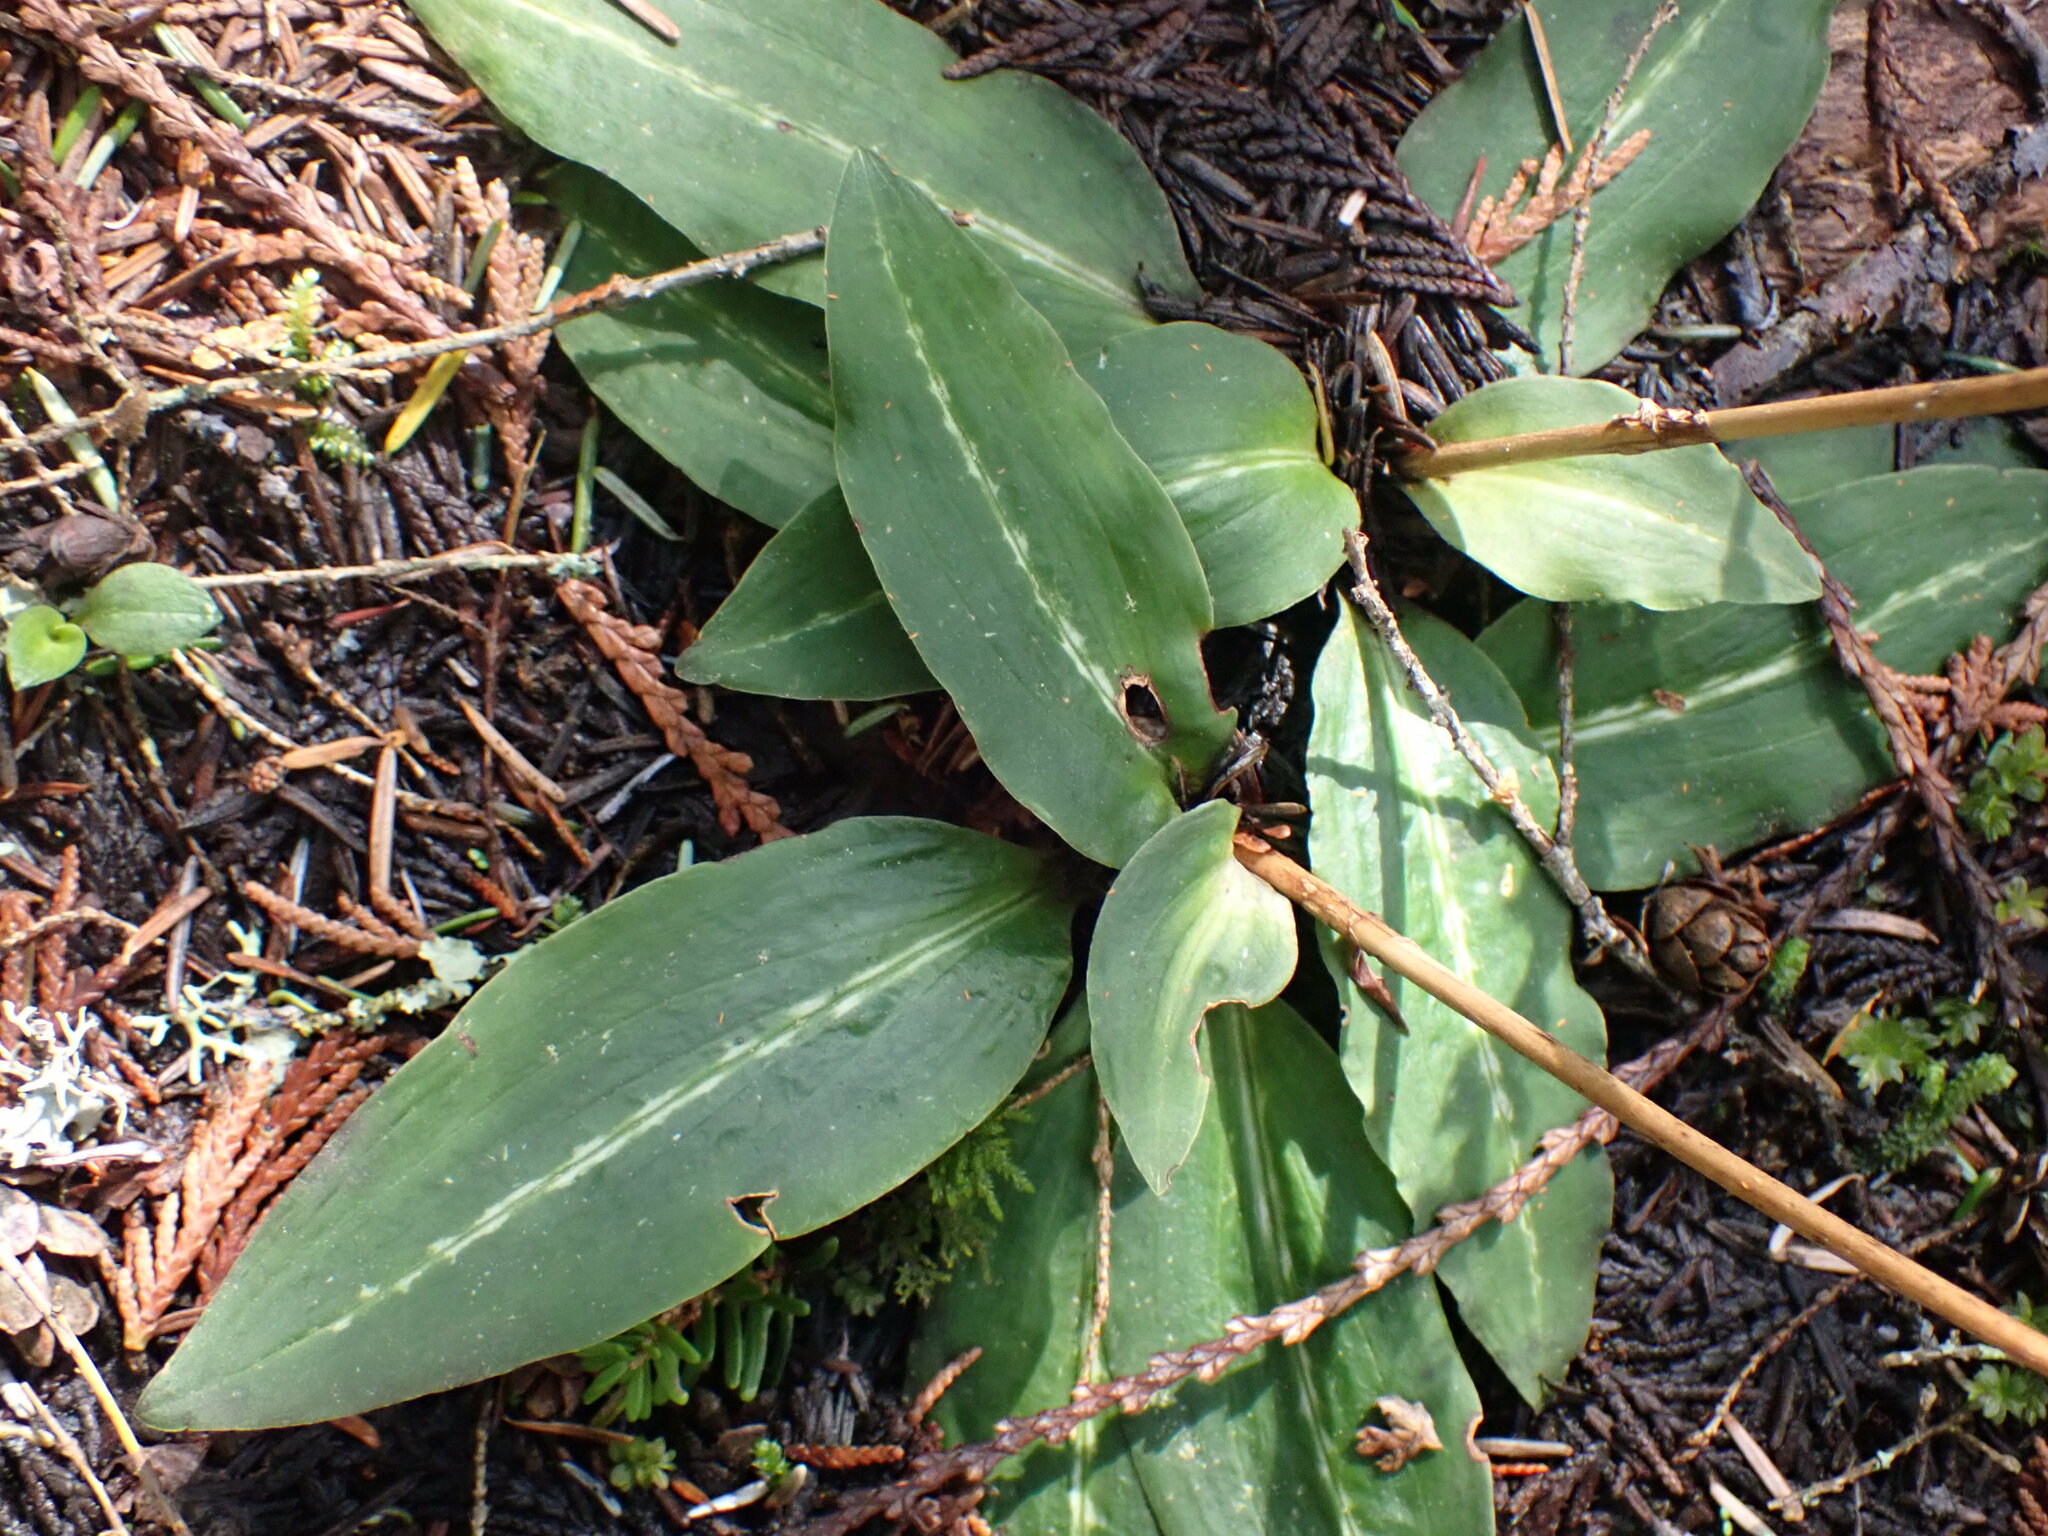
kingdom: Plantae
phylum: Tracheophyta
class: Liliopsida
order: Asparagales
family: Orchidaceae
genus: Goodyera
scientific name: Goodyera oblongifolia
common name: Giant rattlesnake-plantain
